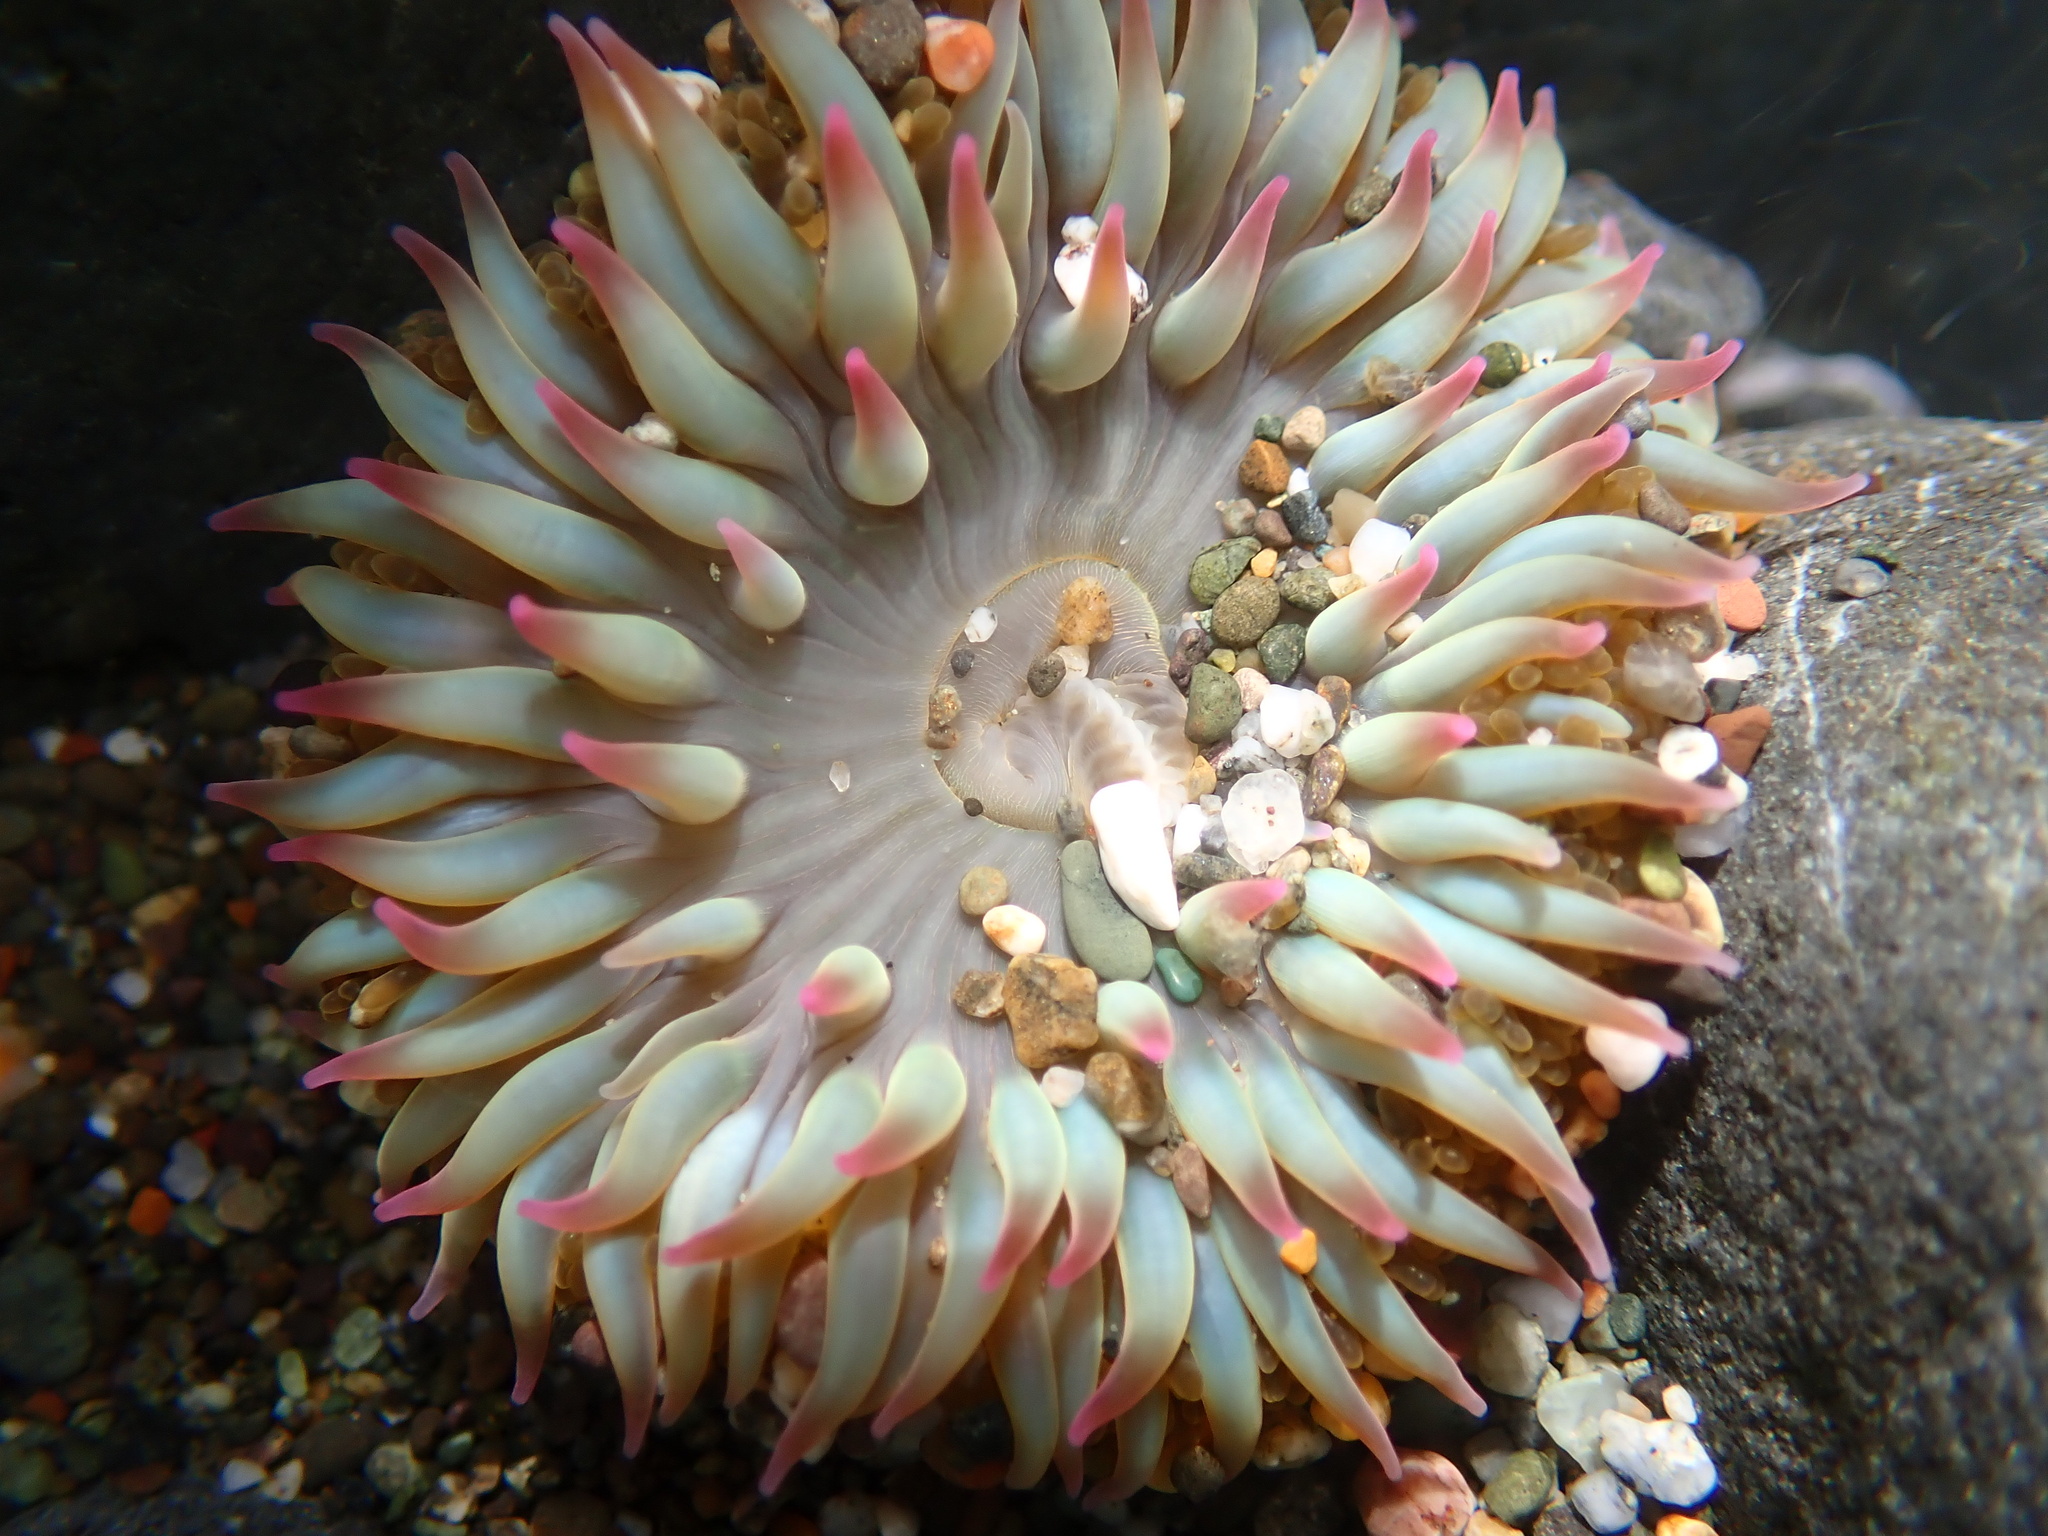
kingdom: Animalia
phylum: Cnidaria
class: Anthozoa
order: Actiniaria
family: Actiniidae
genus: Anthopleura
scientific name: Anthopleura elegantissima
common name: Clonal anemone
